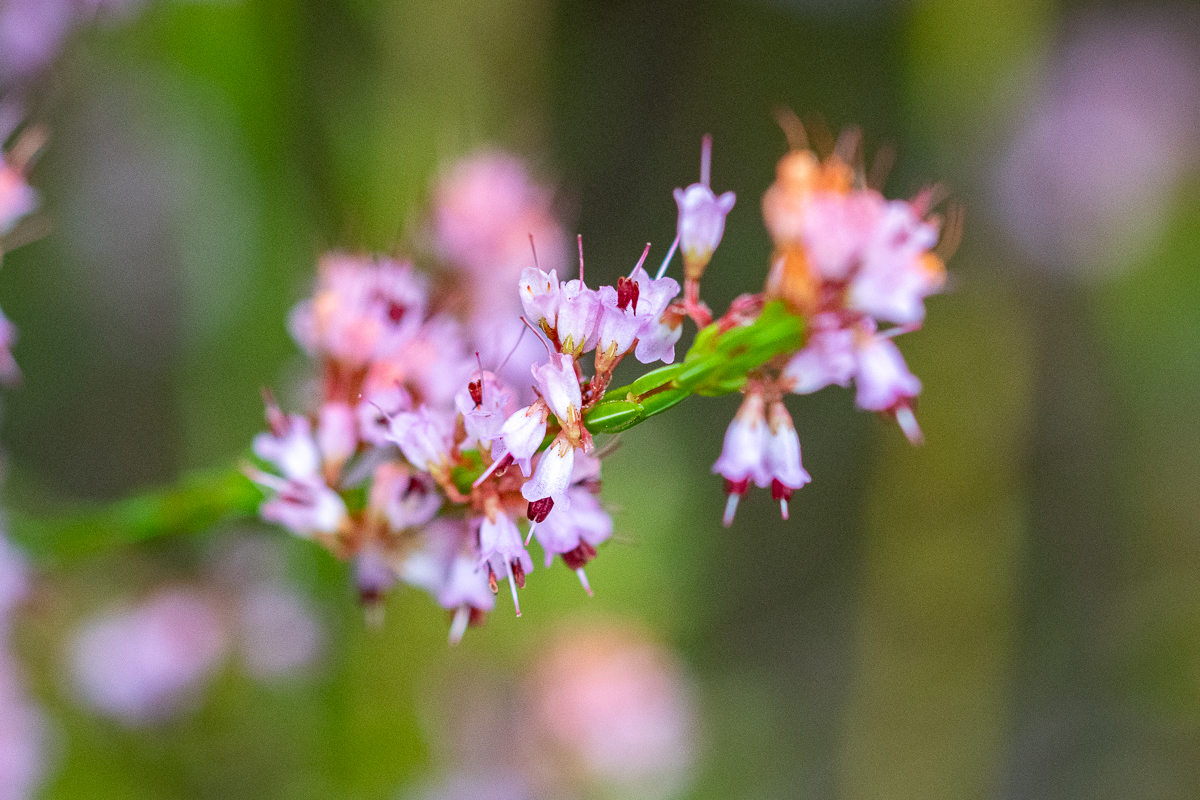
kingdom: Plantae
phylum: Tracheophyta
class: Magnoliopsida
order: Ericales
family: Ericaceae
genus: Erica
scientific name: Erica equisetifolia
